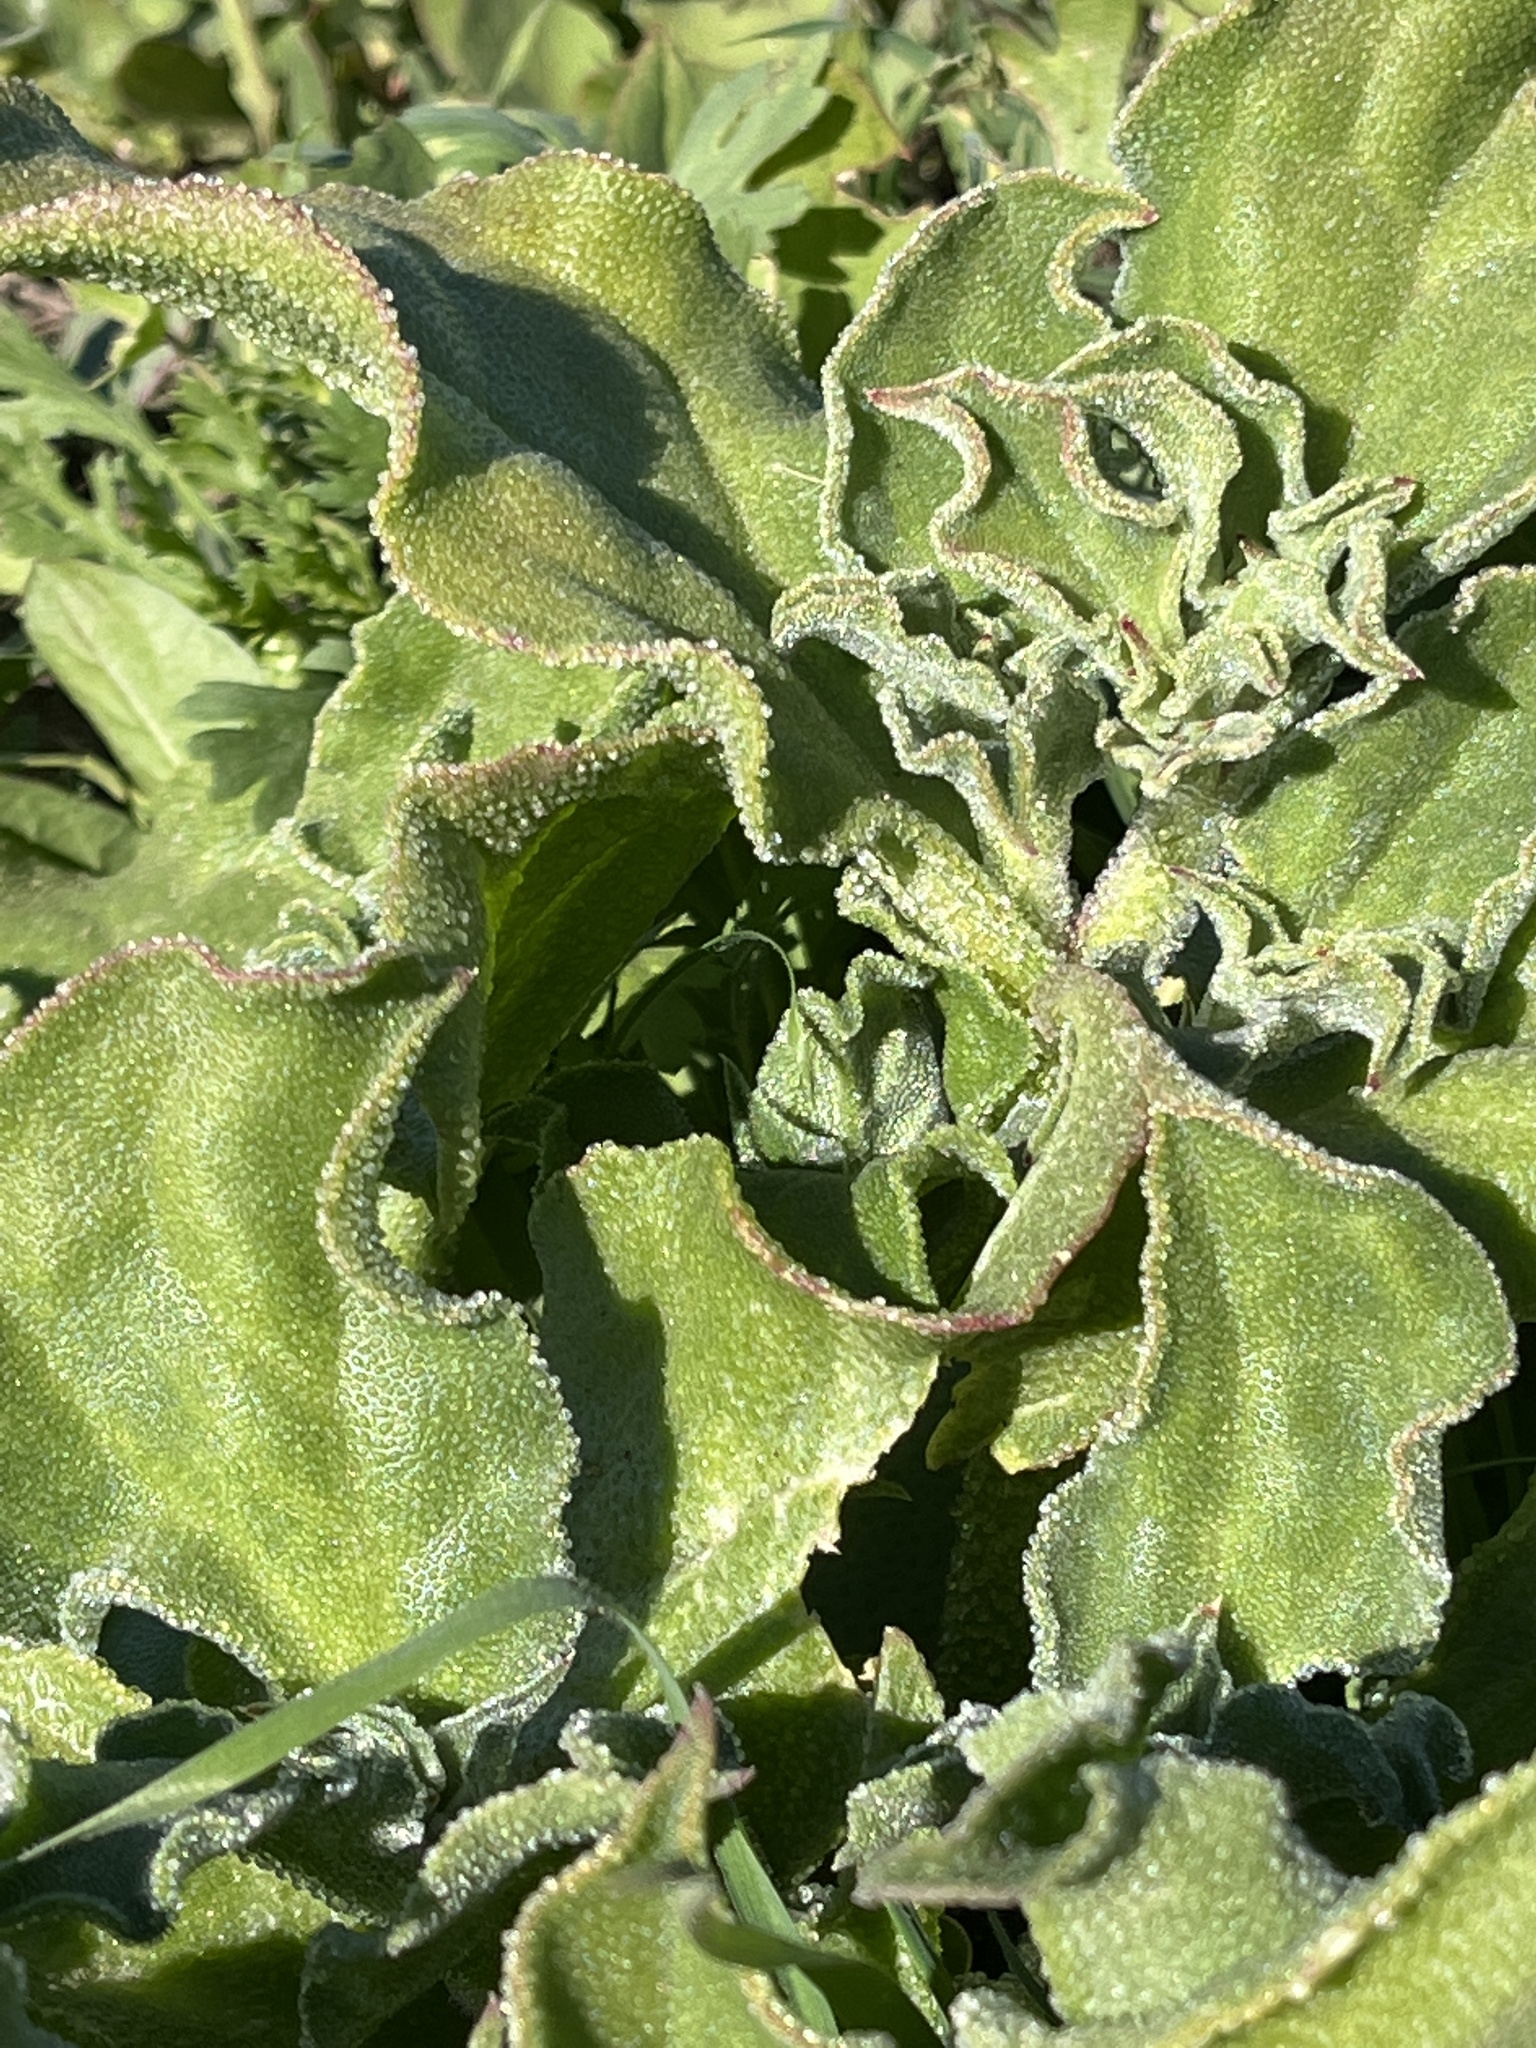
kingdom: Plantae
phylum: Tracheophyta
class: Magnoliopsida
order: Caryophyllales
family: Aizoaceae
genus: Mesembryanthemum
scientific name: Mesembryanthemum crystallinum
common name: Common iceplant
